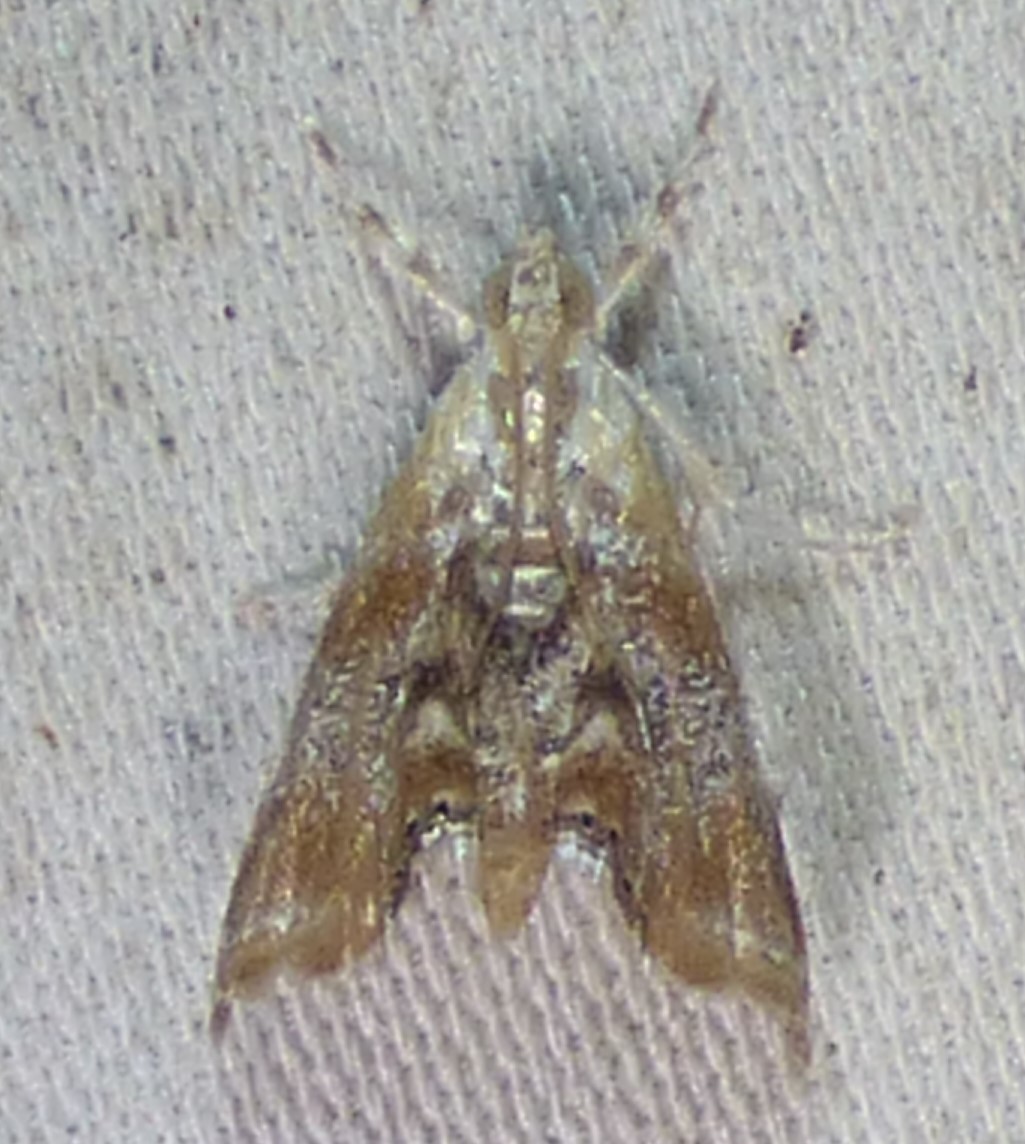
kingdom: Animalia
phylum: Arthropoda
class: Insecta
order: Lepidoptera
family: Crambidae
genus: Dicymolomia
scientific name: Dicymolomia julianalis
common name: Julia's dicymolomia moth
